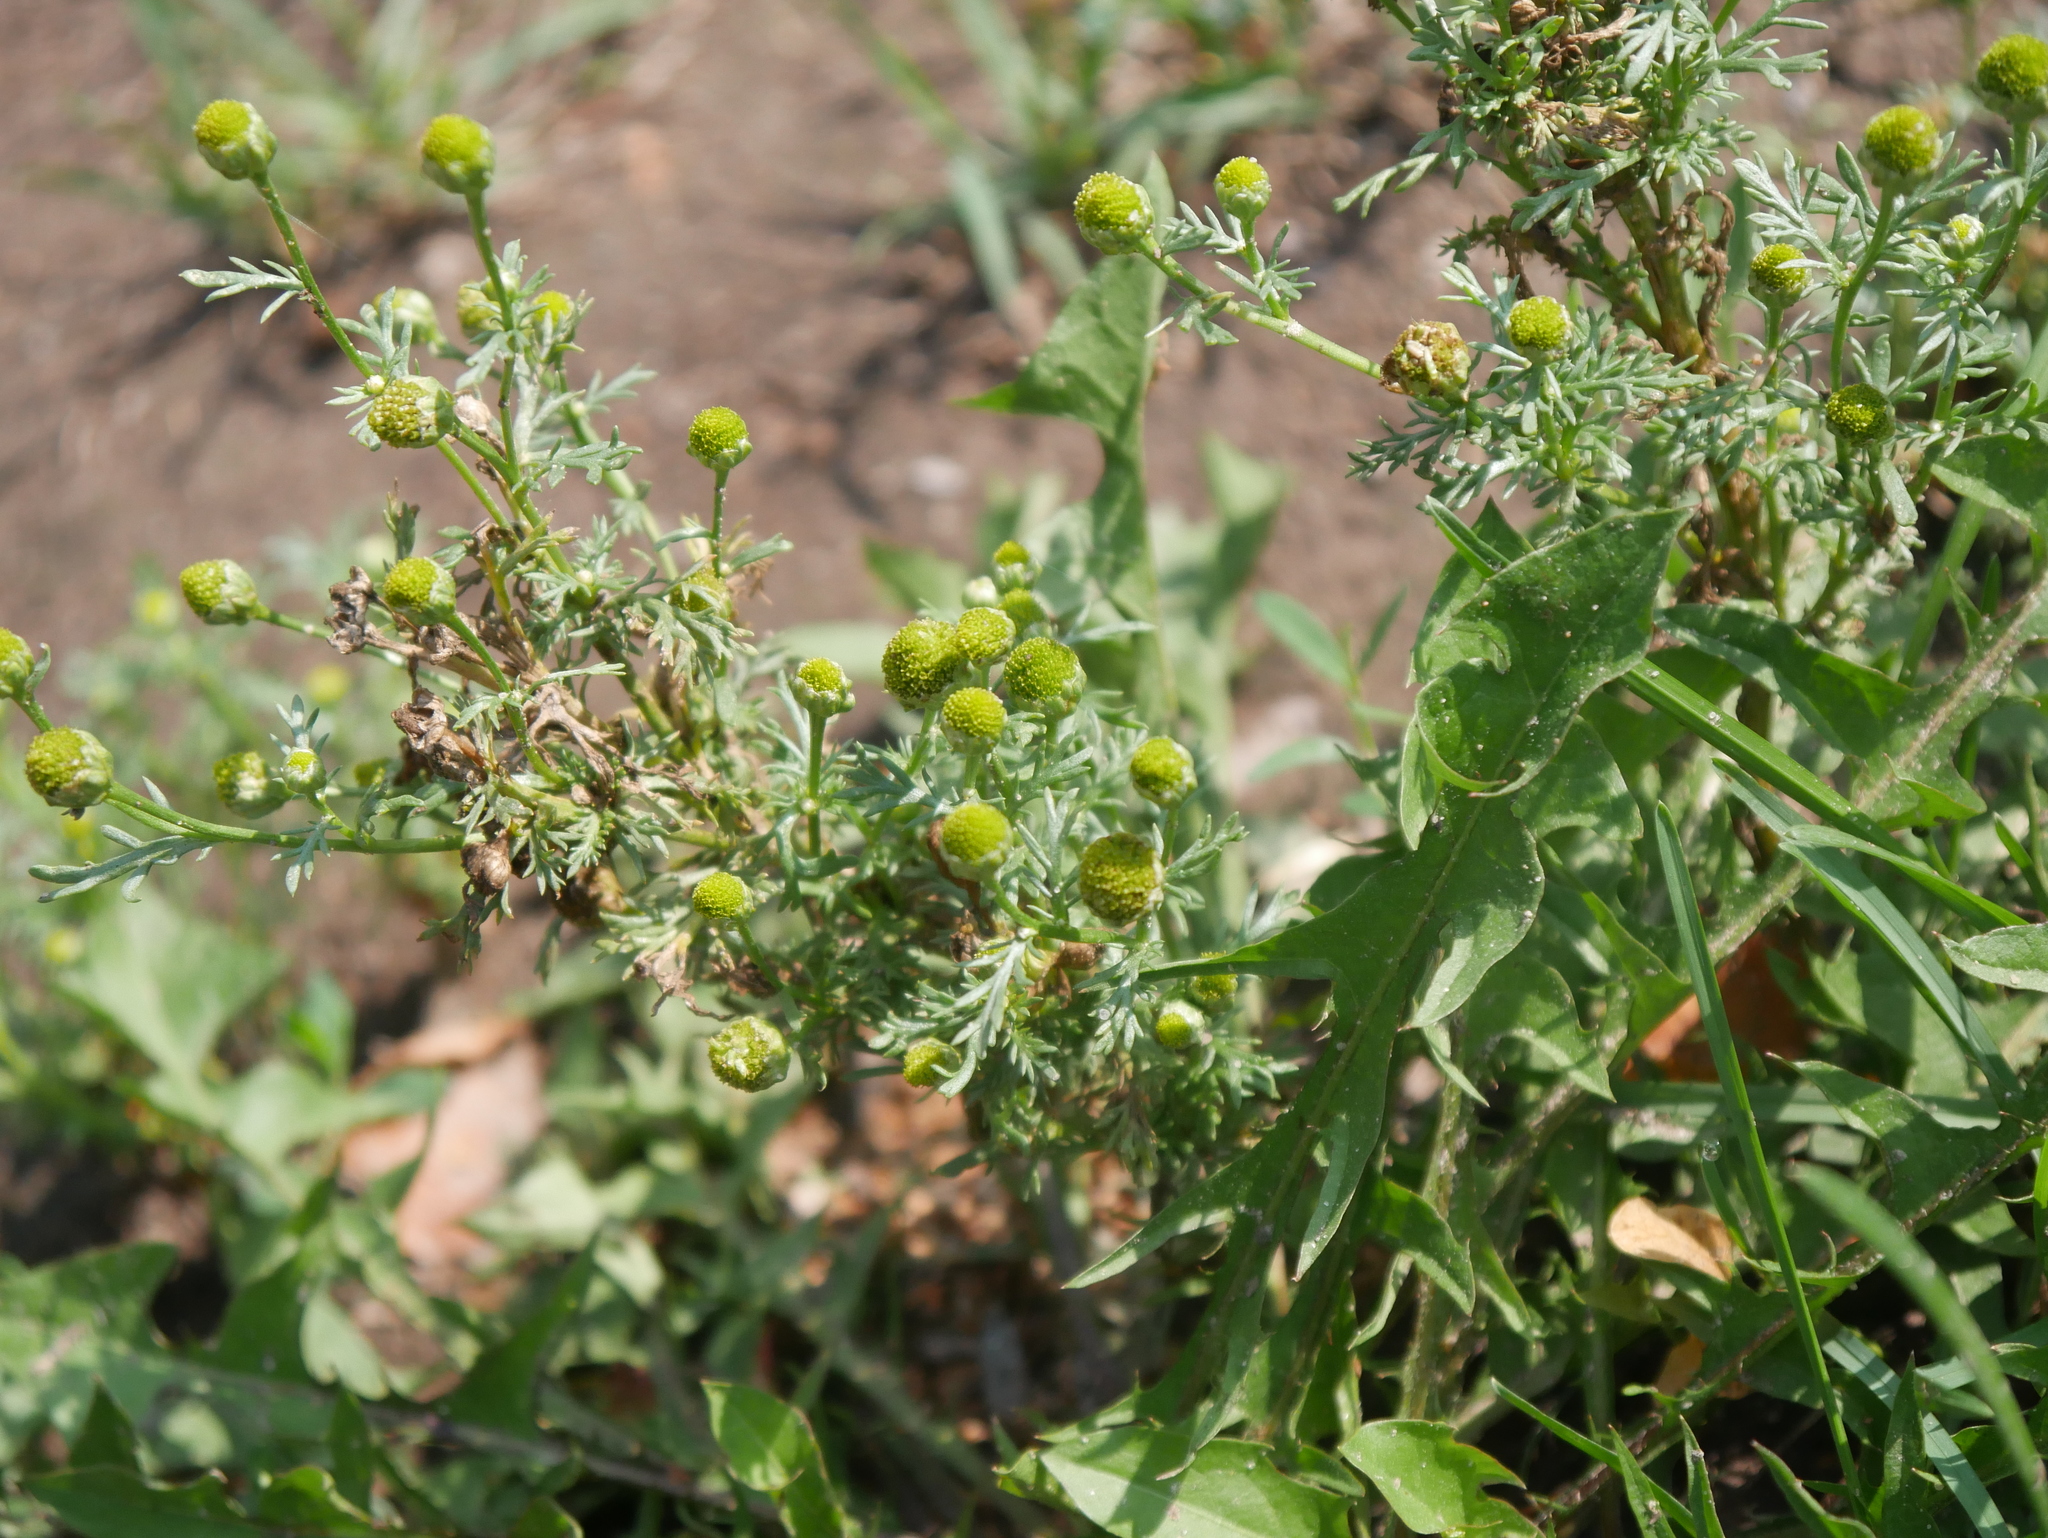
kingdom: Plantae
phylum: Tracheophyta
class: Magnoliopsida
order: Asterales
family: Asteraceae
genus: Matricaria
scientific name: Matricaria discoidea
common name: Disc mayweed
